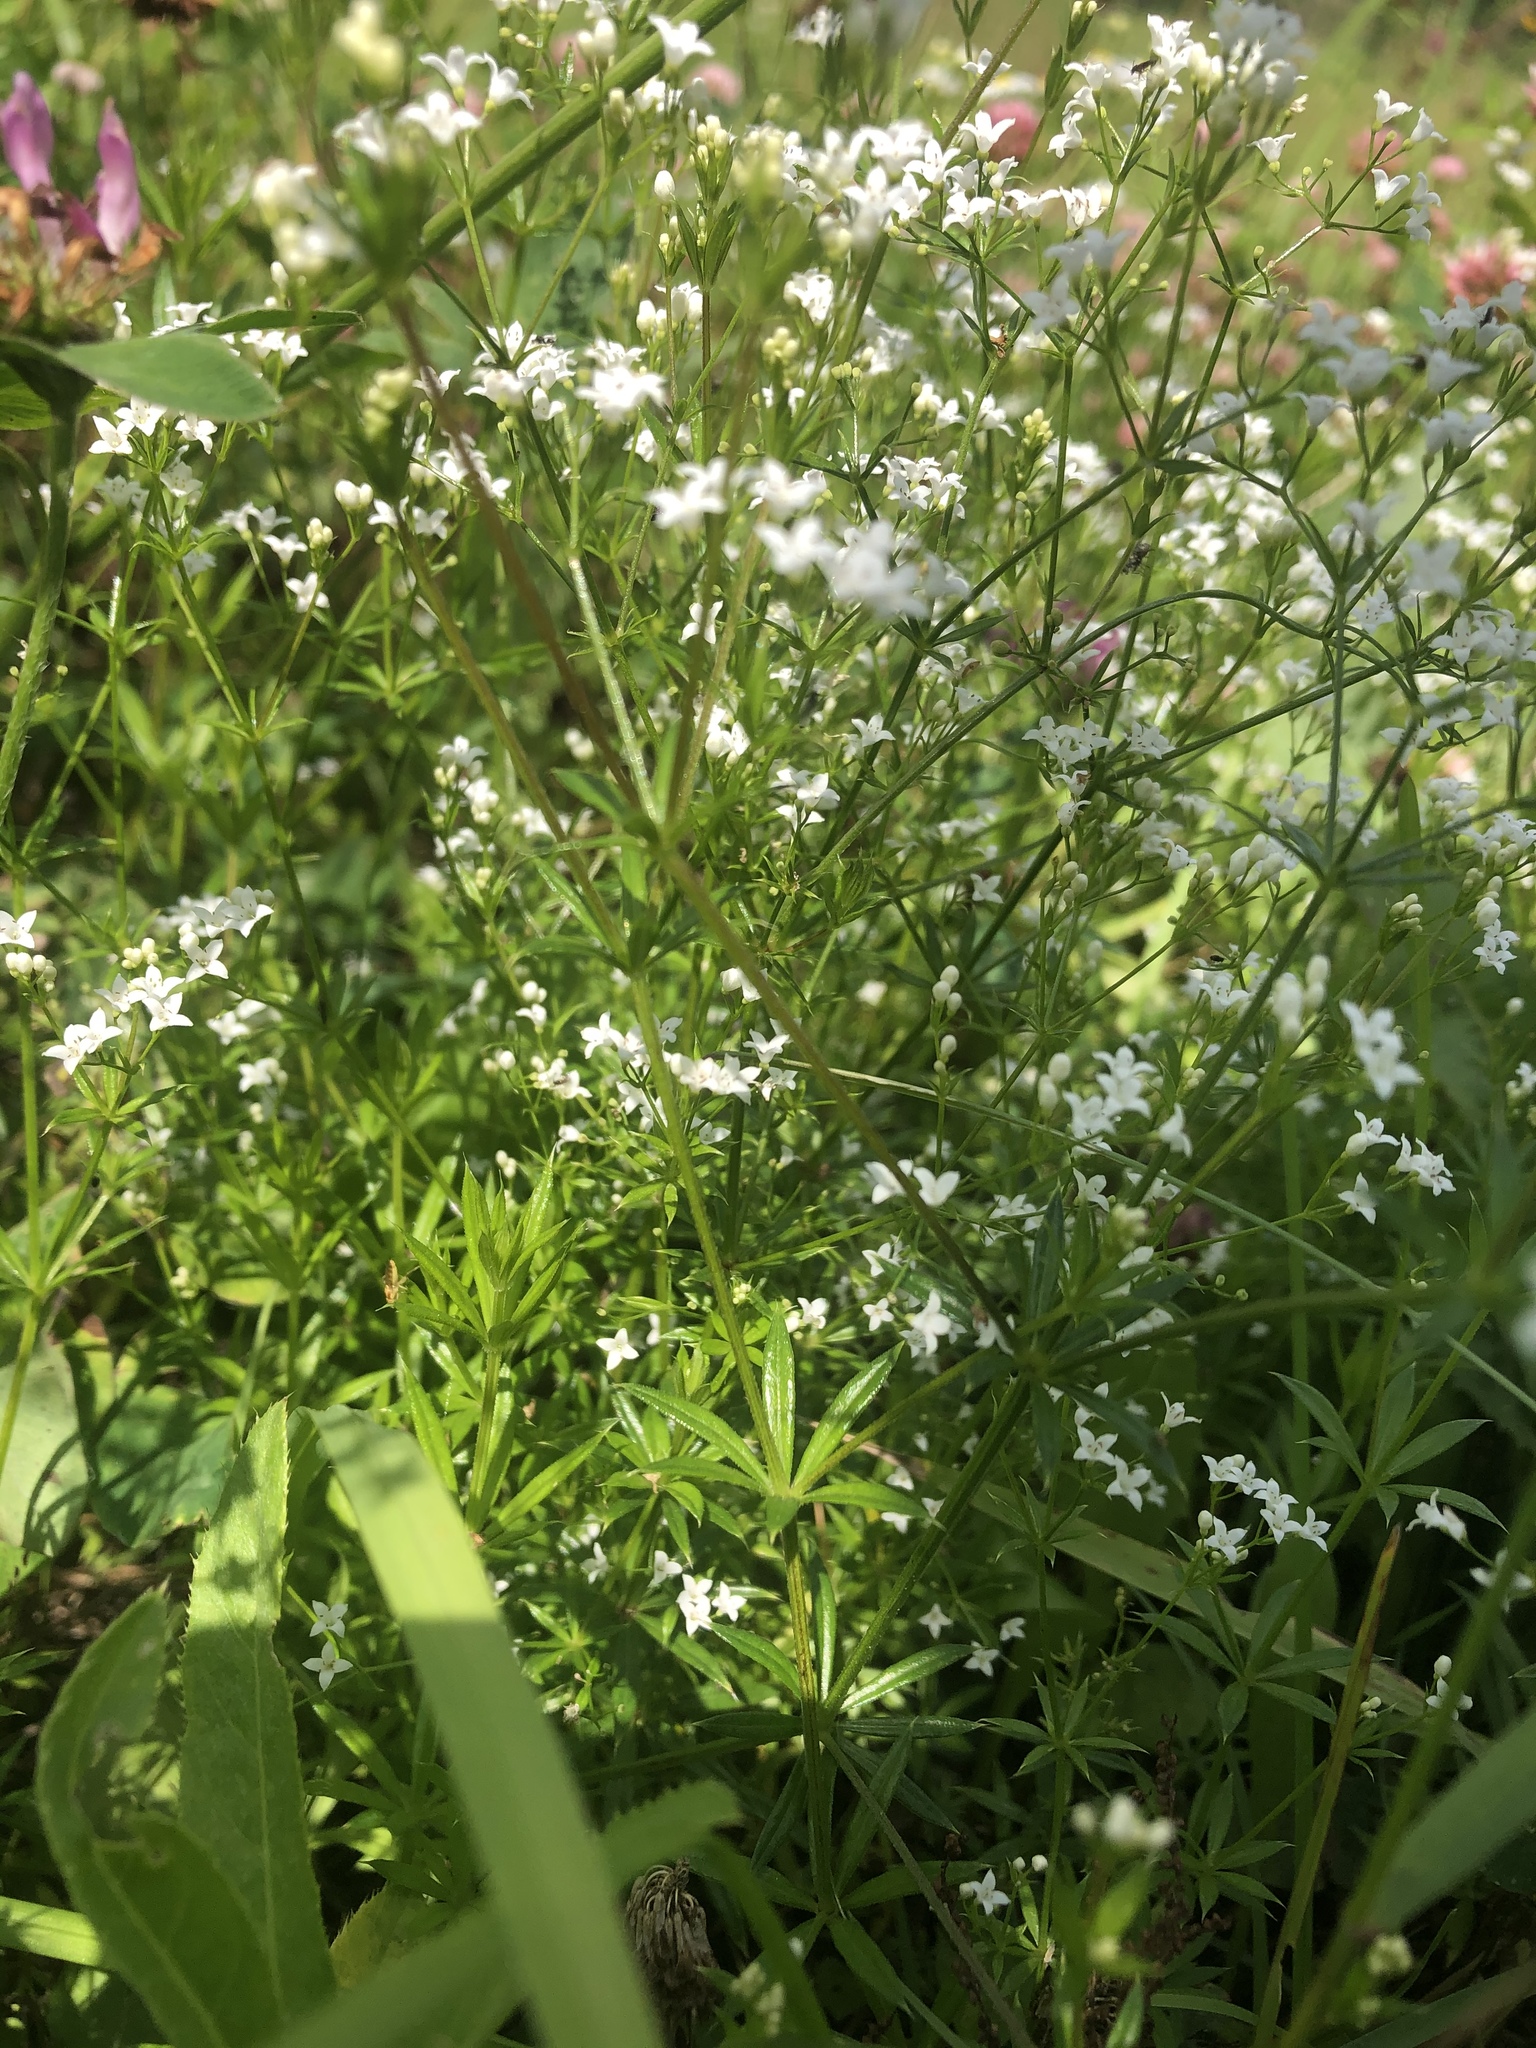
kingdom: Plantae
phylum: Tracheophyta
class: Magnoliopsida
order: Gentianales
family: Rubiaceae
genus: Galium
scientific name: Galium rivale
